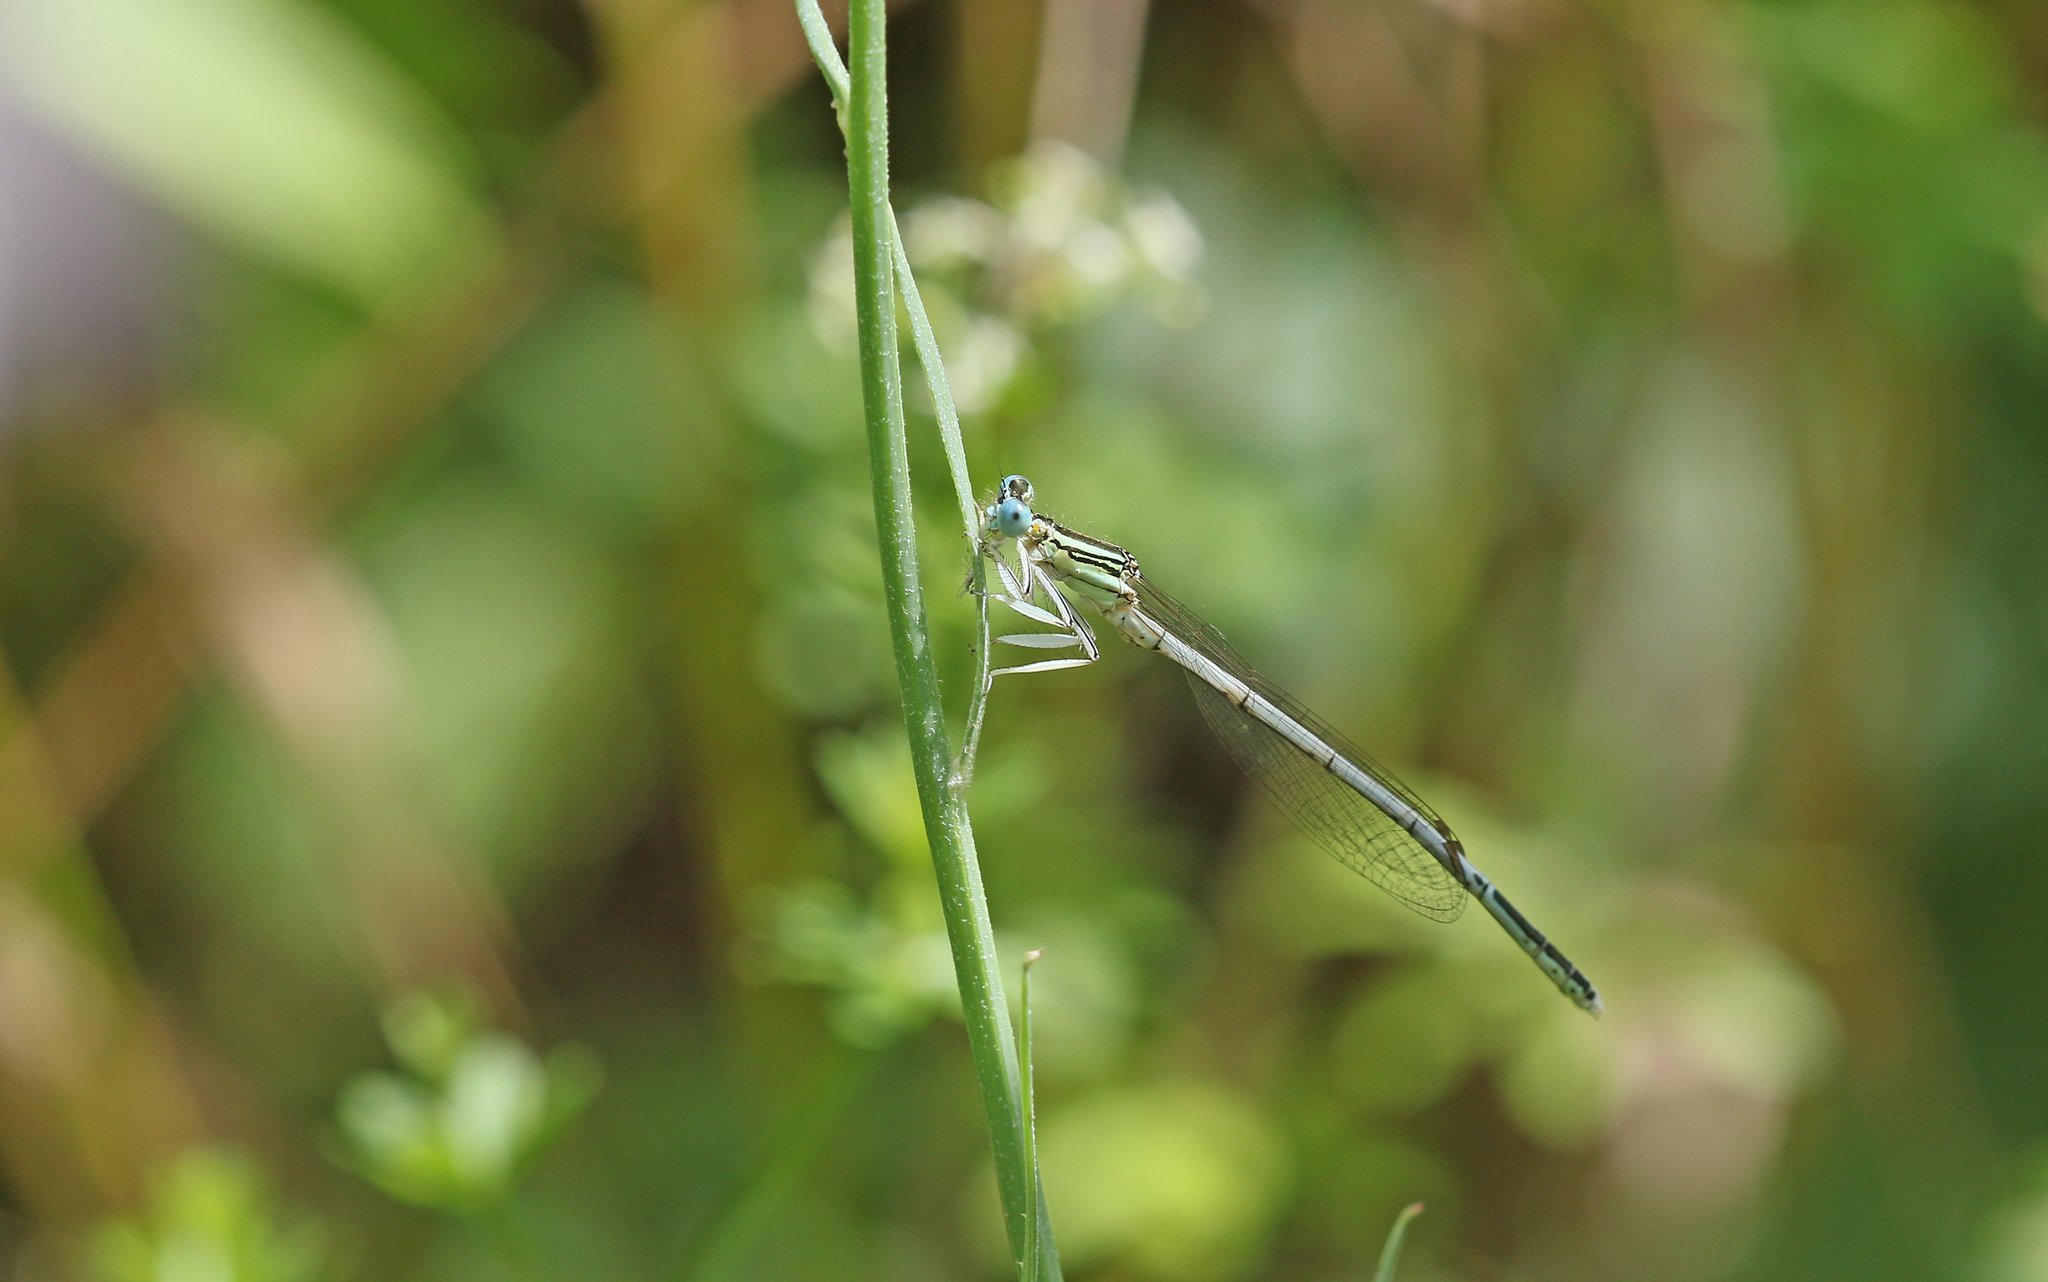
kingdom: Animalia
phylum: Arthropoda
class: Insecta
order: Odonata
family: Platycnemididae
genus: Platycnemis
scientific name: Platycnemis latipes
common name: White featherleg
